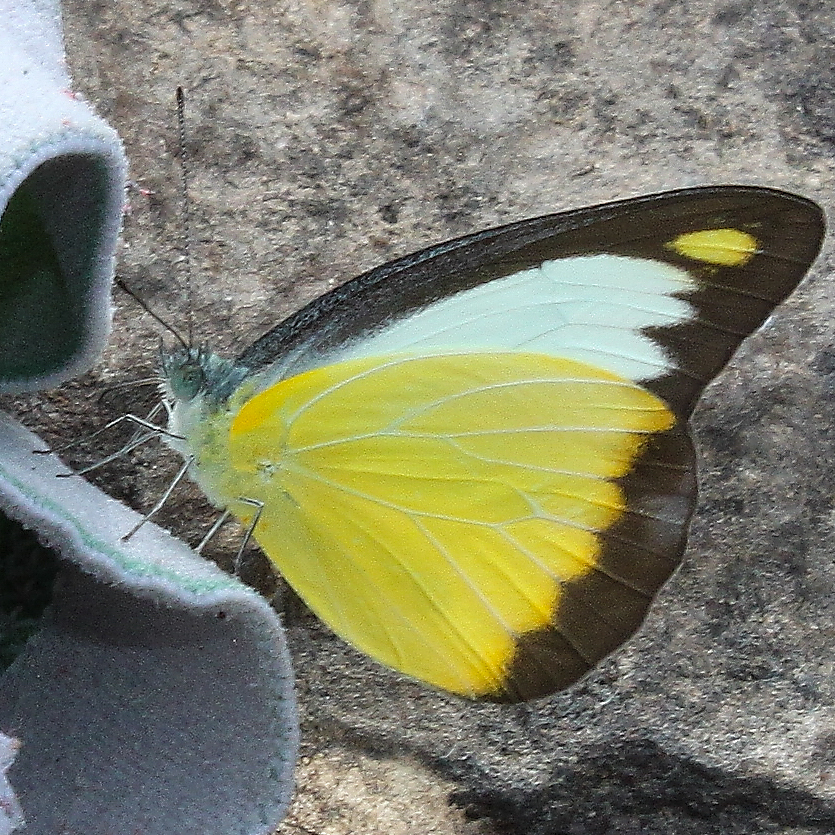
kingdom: Animalia
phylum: Arthropoda
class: Insecta
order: Lepidoptera
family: Pieridae
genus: Appias
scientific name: Appias lyncida
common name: Chocolate albatross
